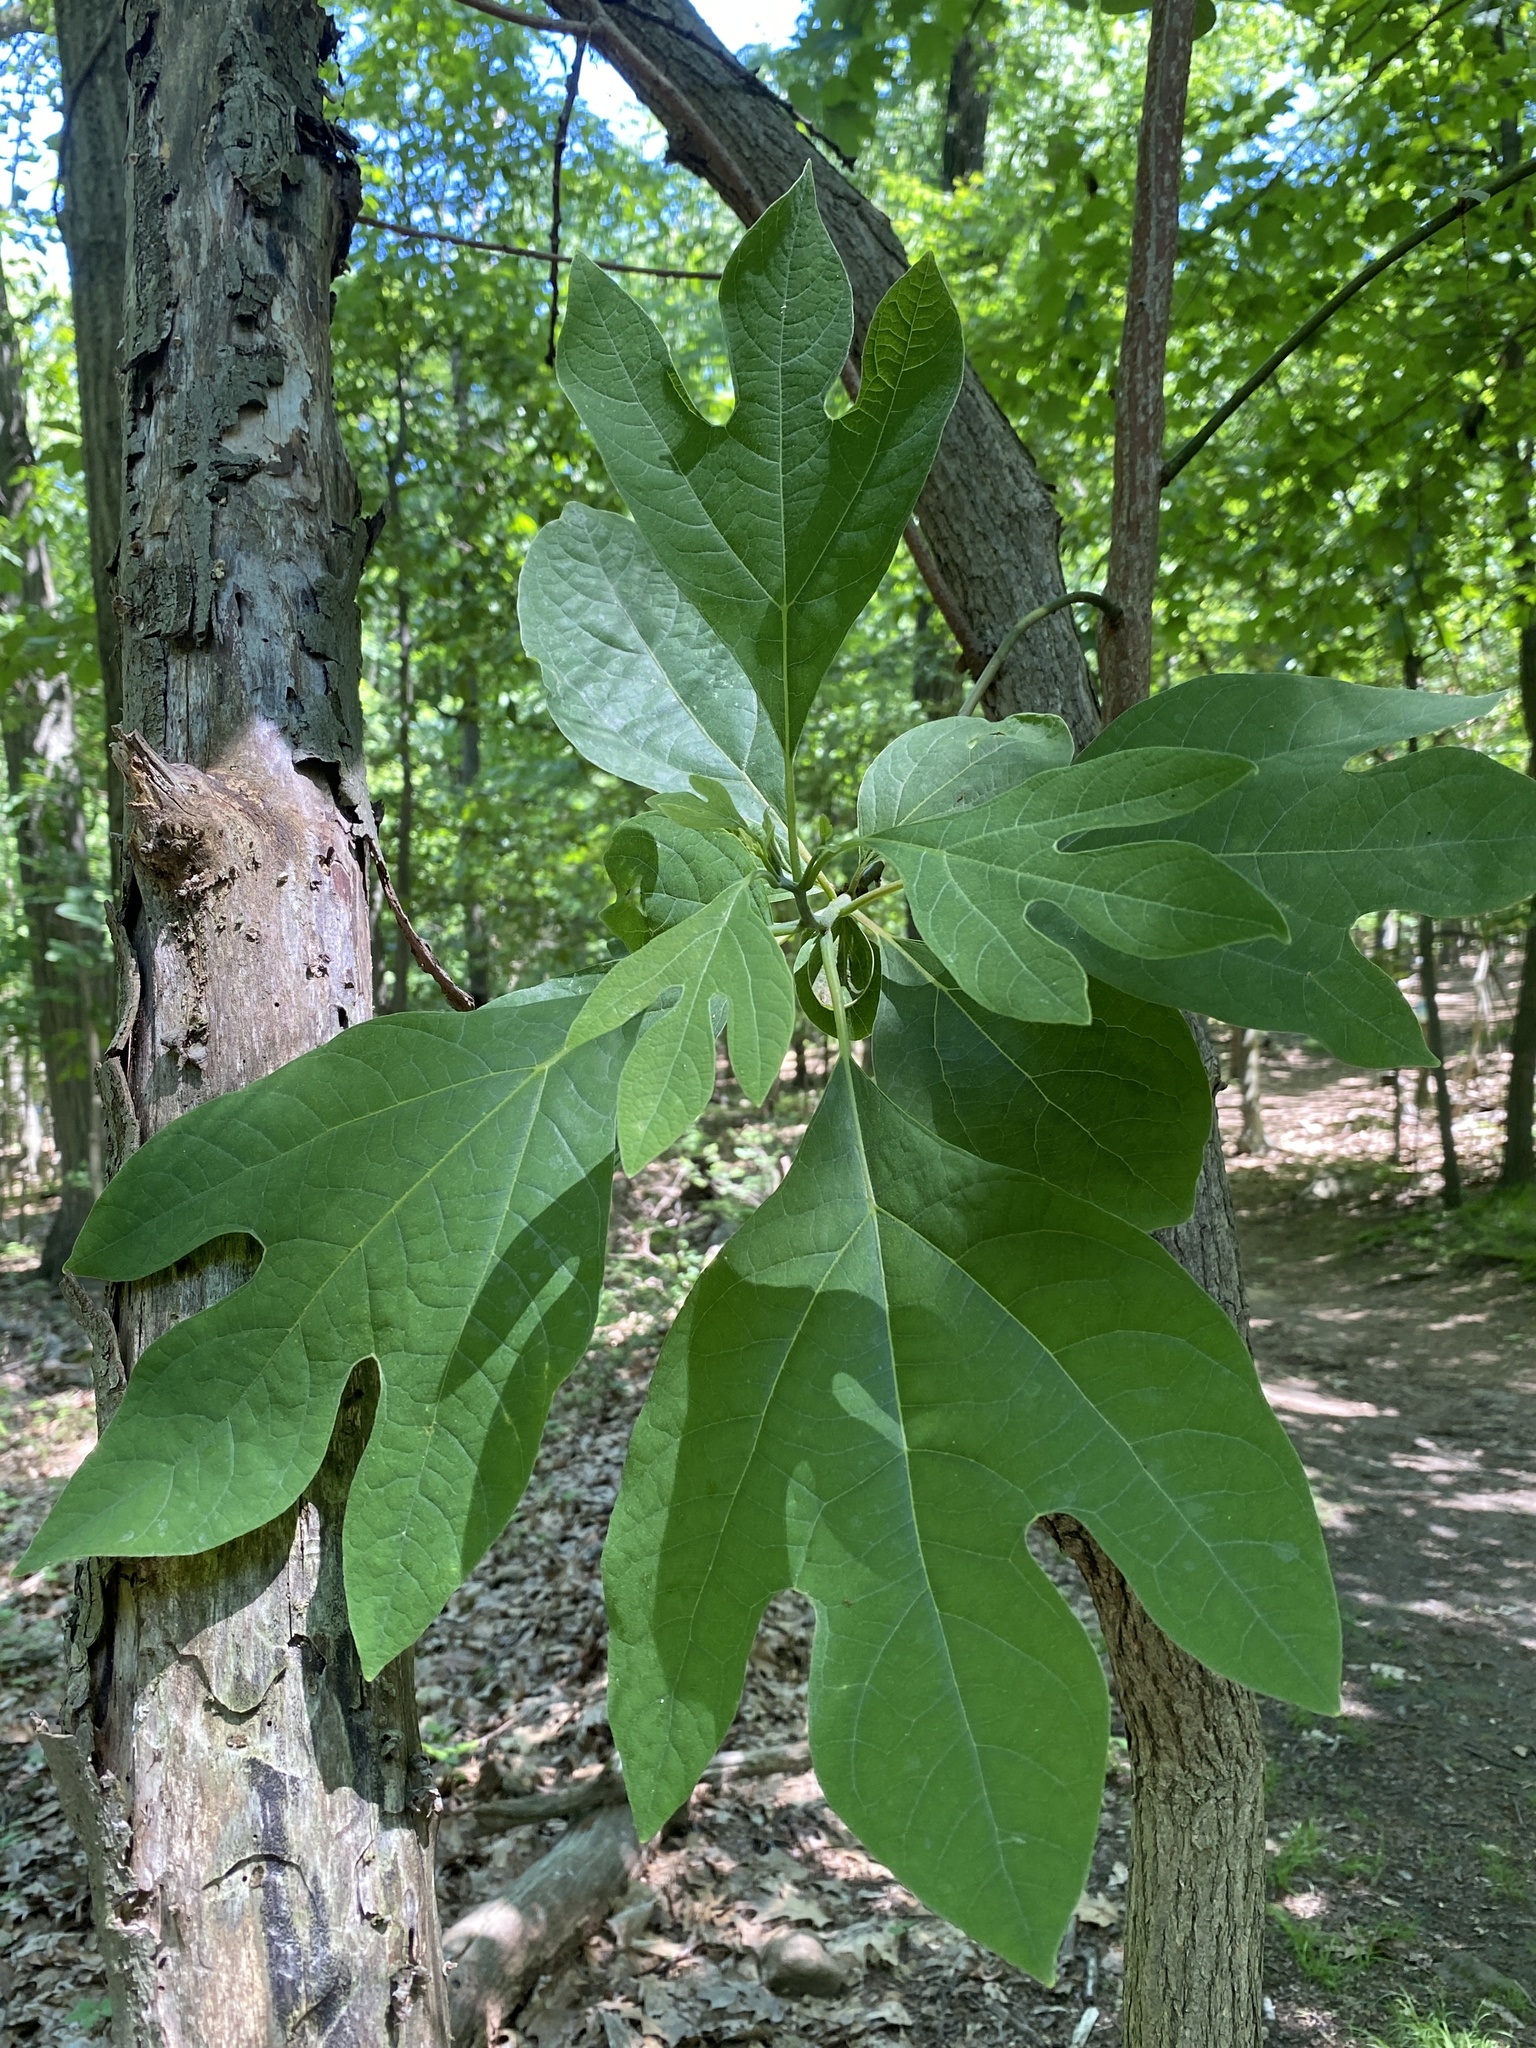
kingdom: Plantae
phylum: Tracheophyta
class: Magnoliopsida
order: Laurales
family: Lauraceae
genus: Sassafras
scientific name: Sassafras albidum
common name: Sassafras
